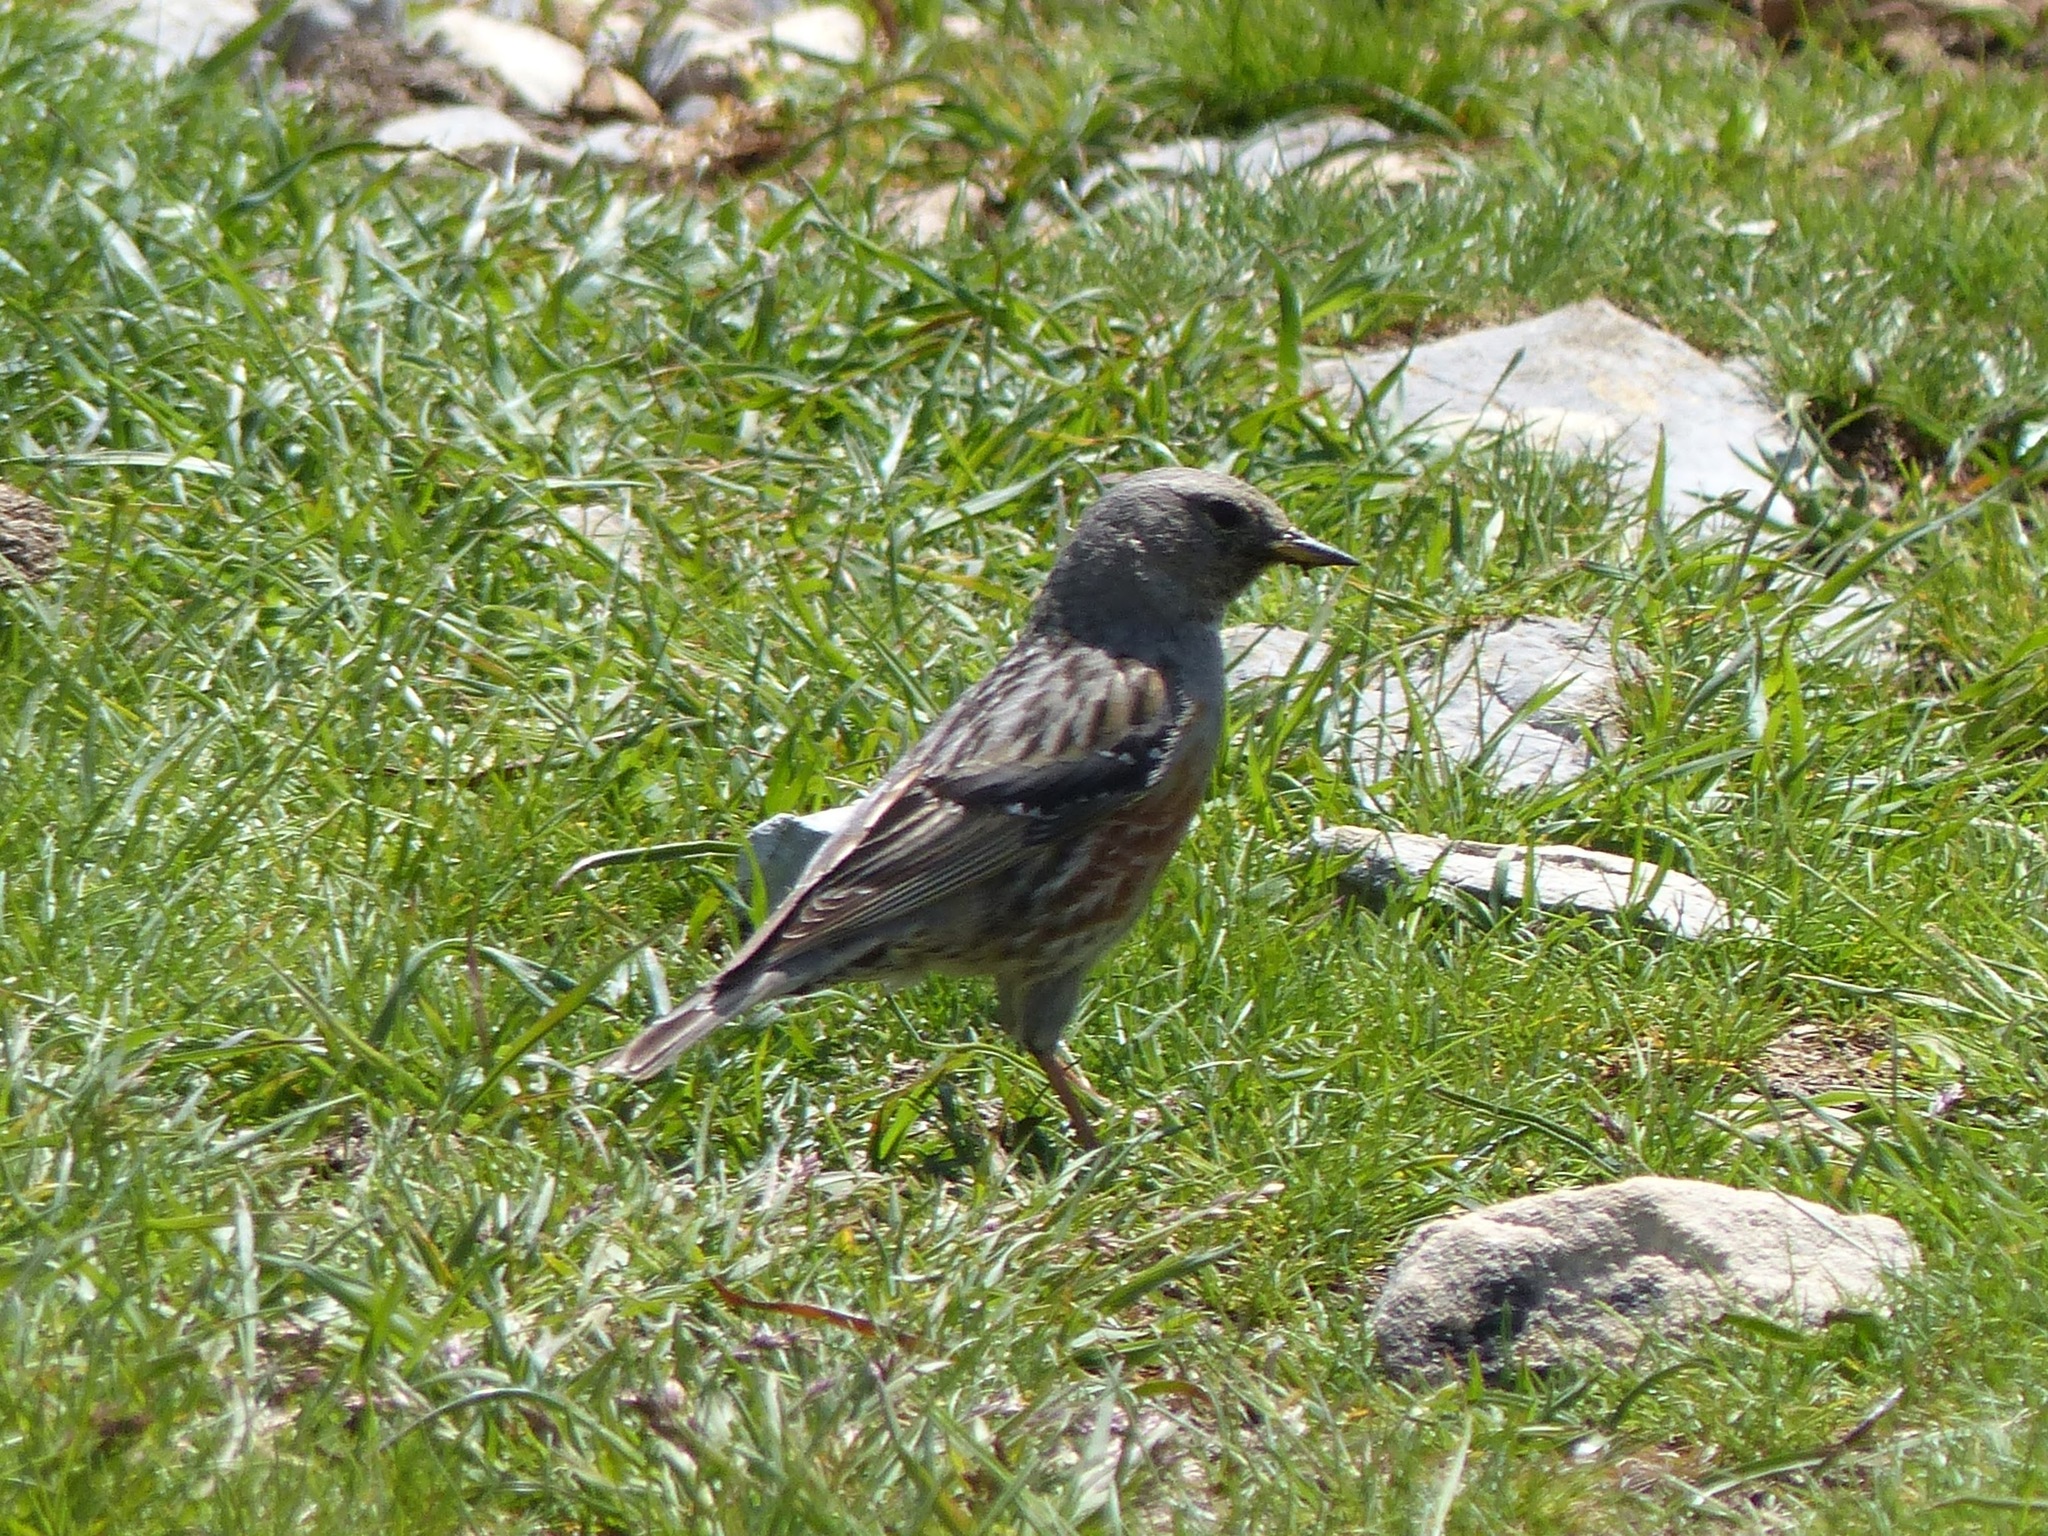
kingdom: Animalia
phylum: Chordata
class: Aves
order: Passeriformes
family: Prunellidae
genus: Prunella
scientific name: Prunella collaris
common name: Alpine accentor
